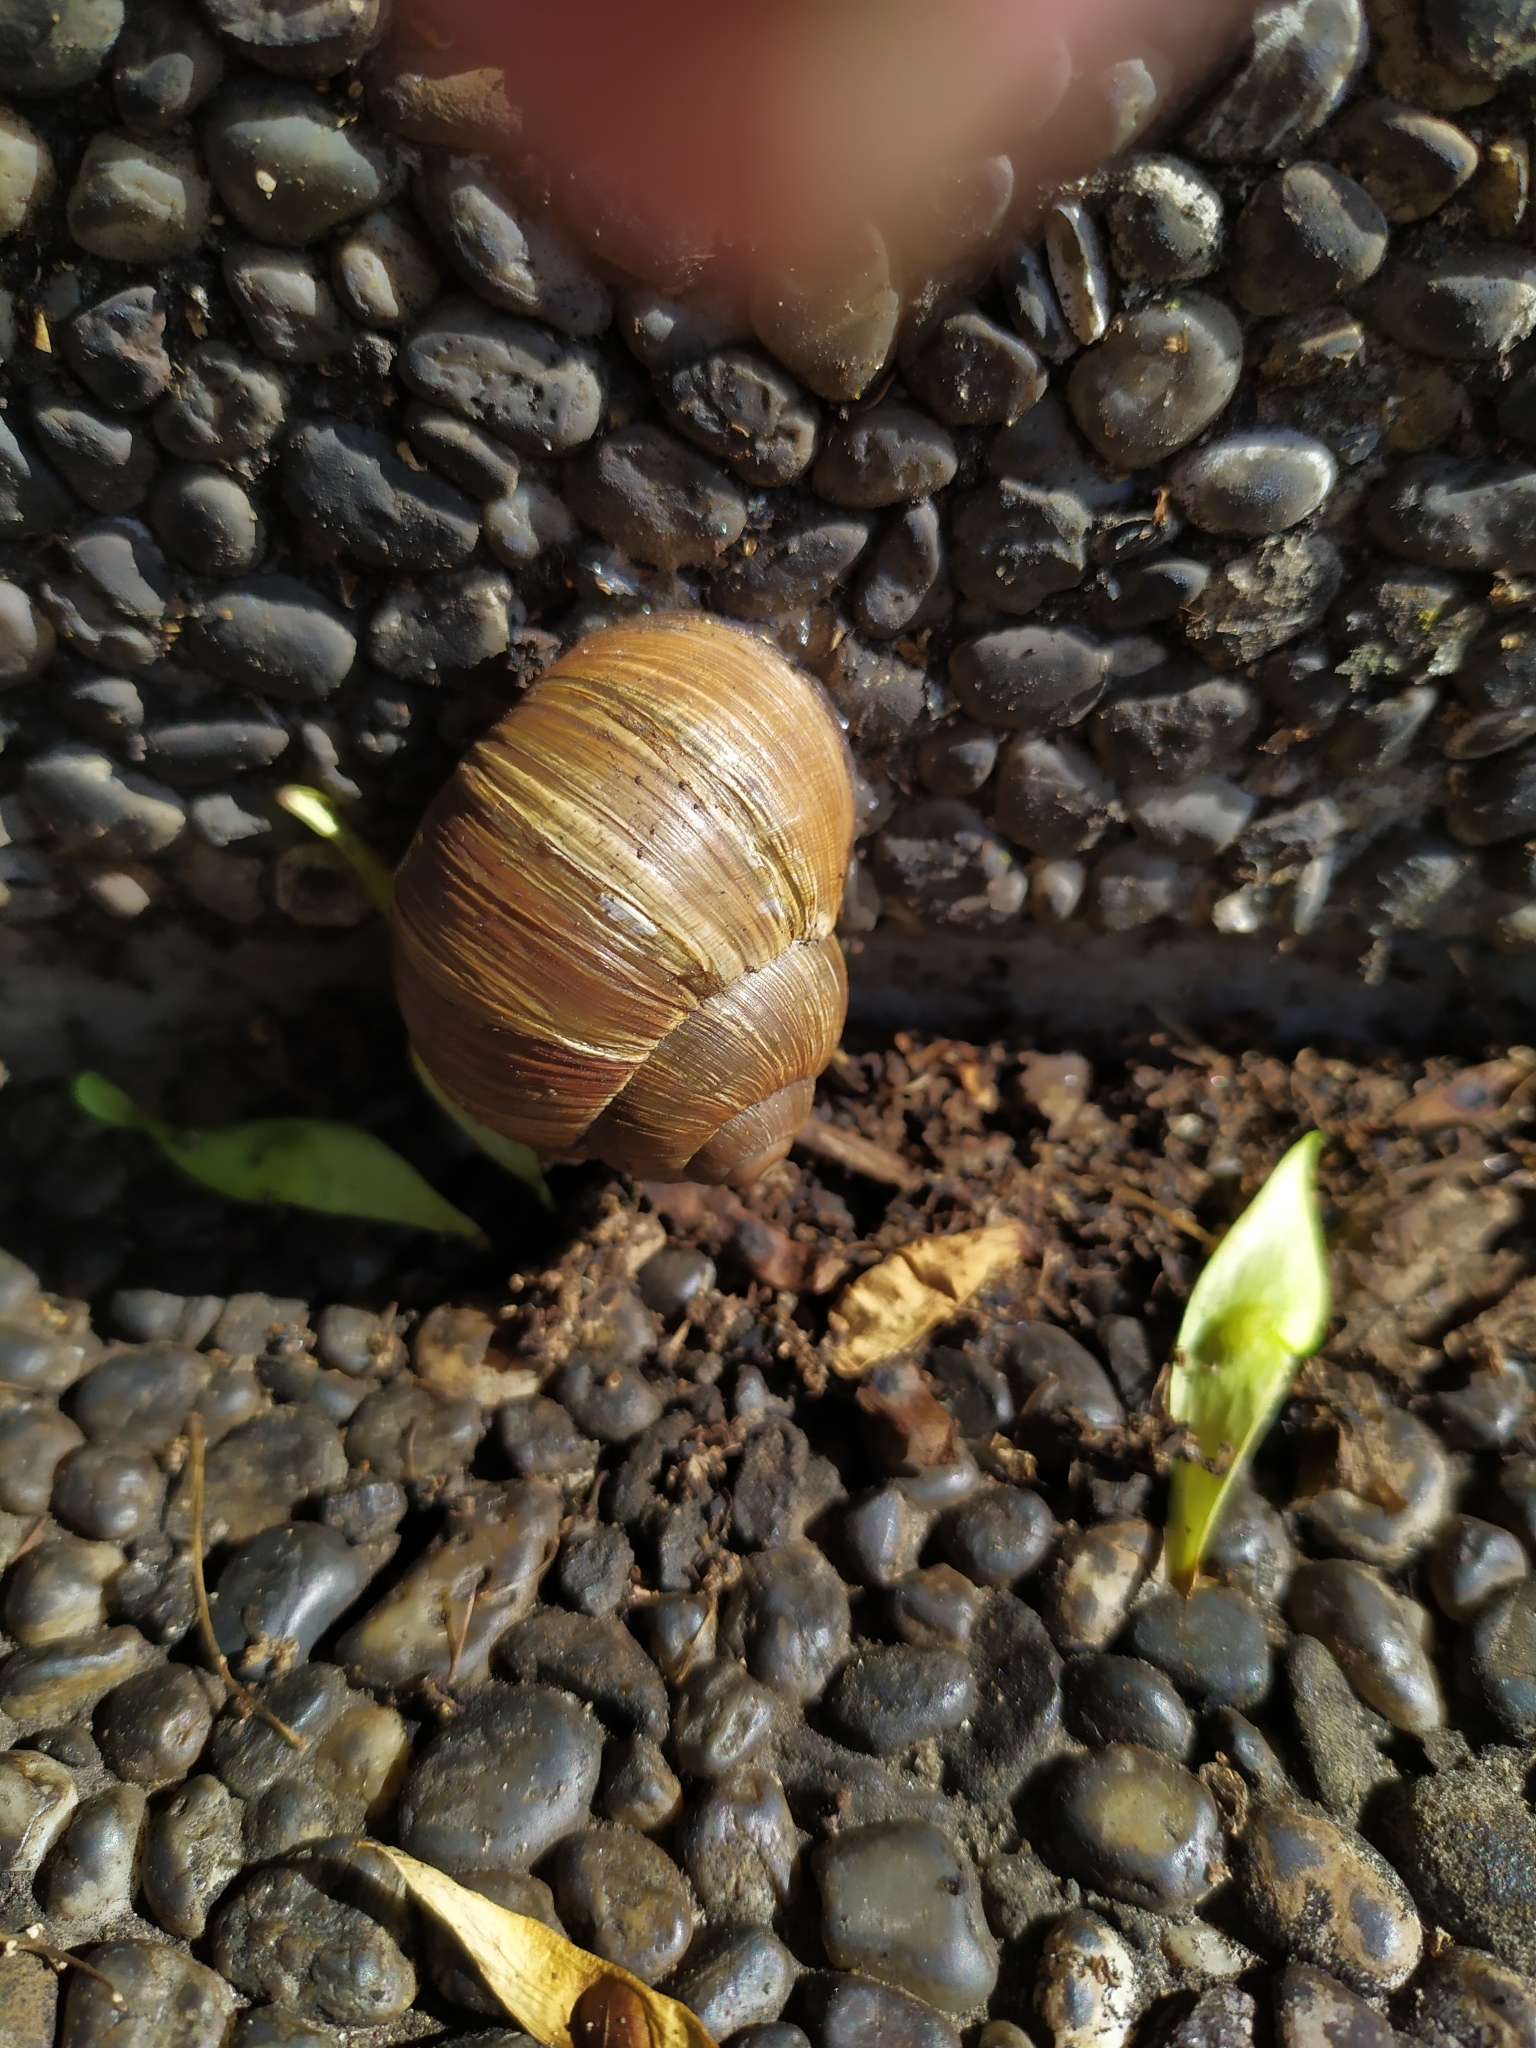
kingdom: Animalia
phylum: Mollusca
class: Gastropoda
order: Stylommatophora
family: Helicidae
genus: Helix
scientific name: Helix pomatia
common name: Roman snail
